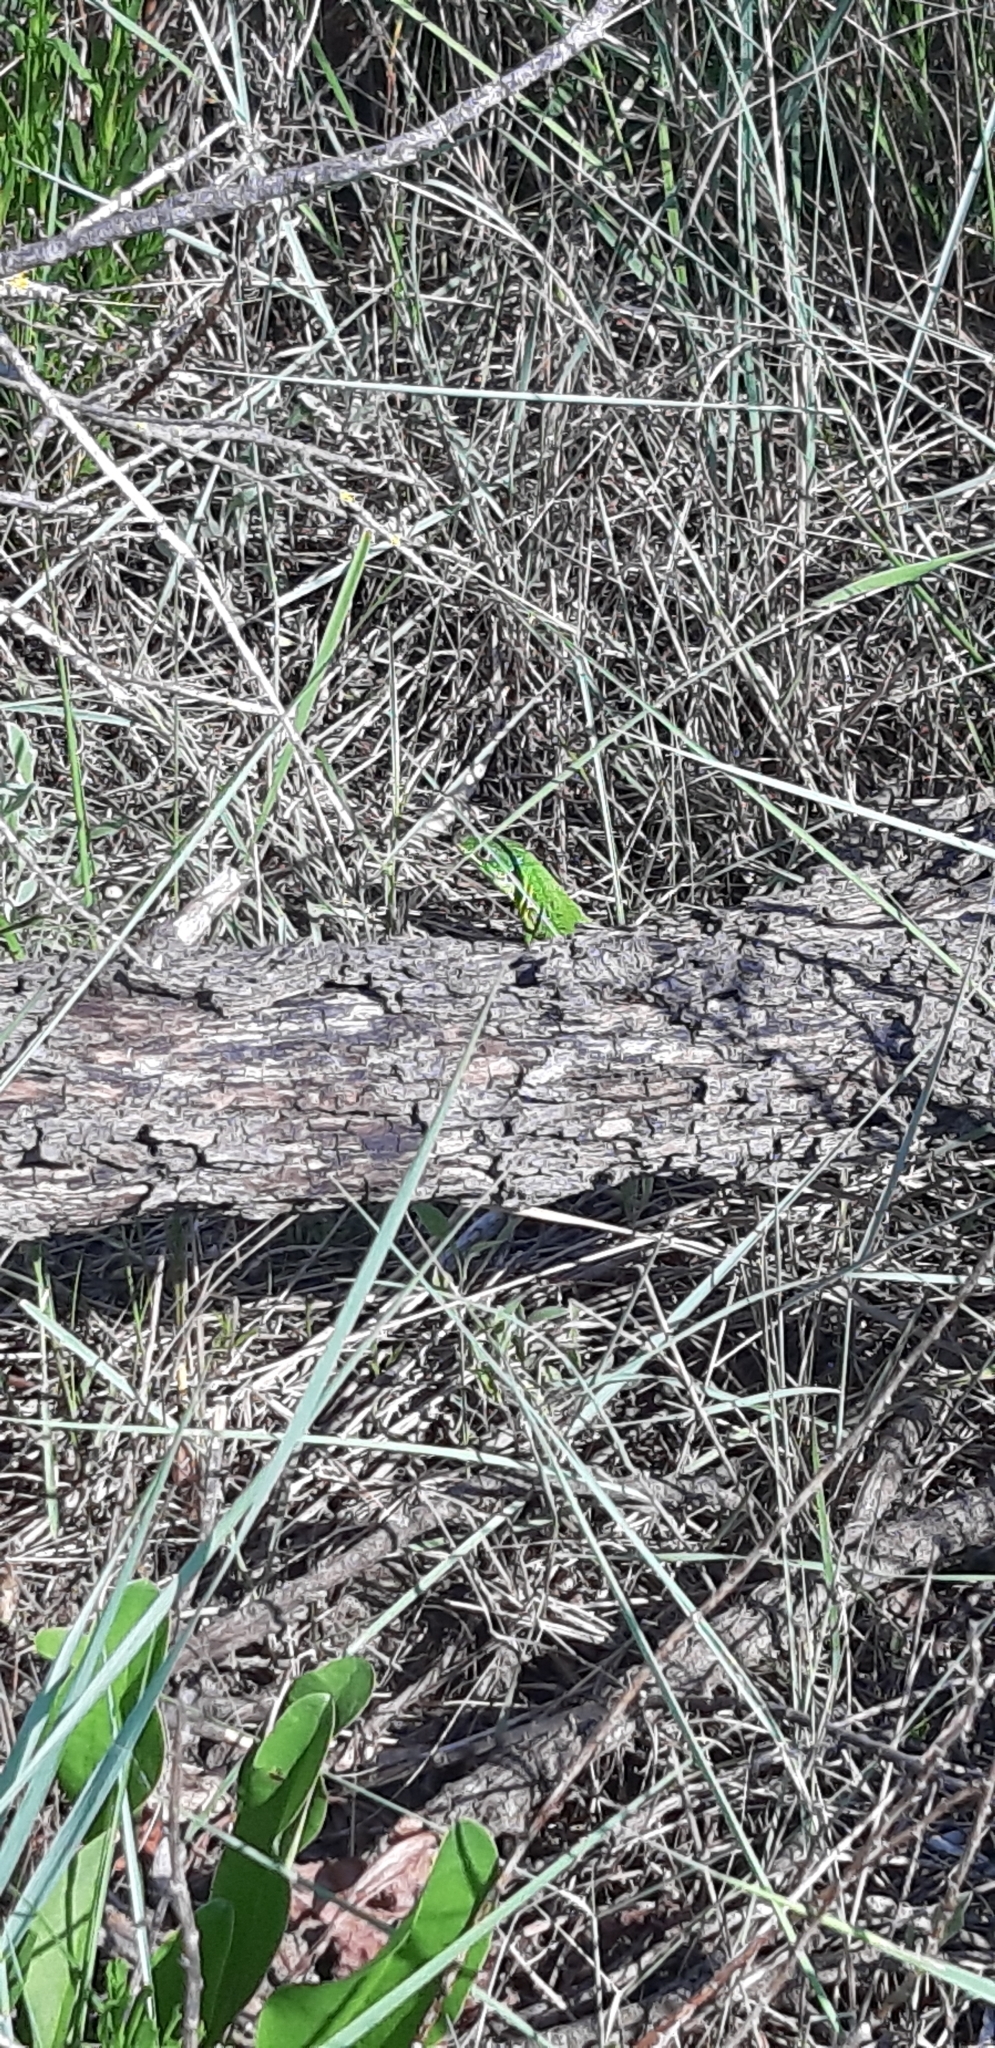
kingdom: Animalia
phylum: Chordata
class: Squamata
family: Lacertidae
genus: Lacerta
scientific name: Lacerta bilineata
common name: Western green lizard
